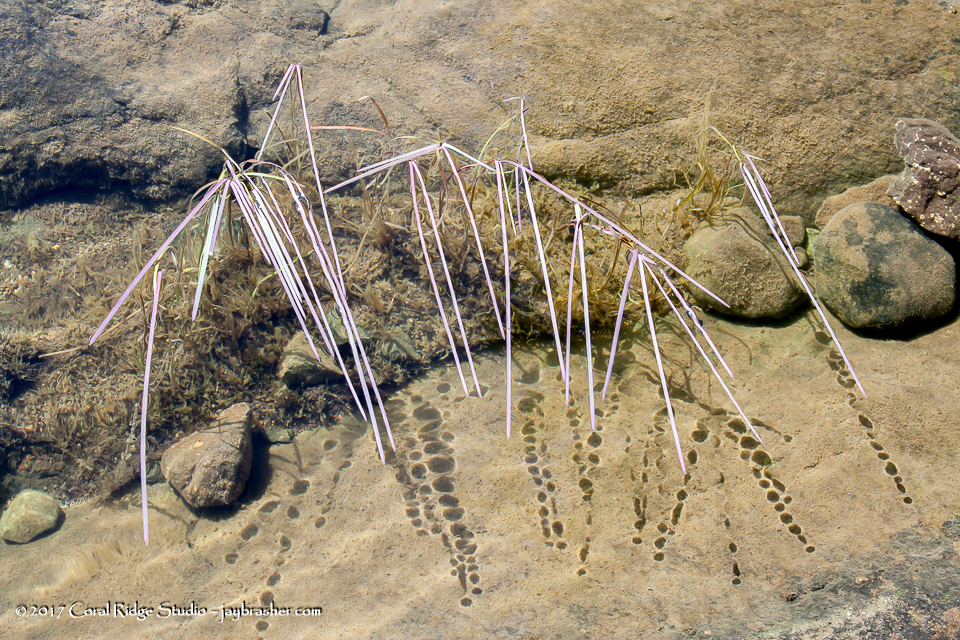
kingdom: Plantae
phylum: Tracheophyta
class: Liliopsida
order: Poales
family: Typhaceae
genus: Sparganium
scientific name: Sparganium fluctuans
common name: Floating burreed
